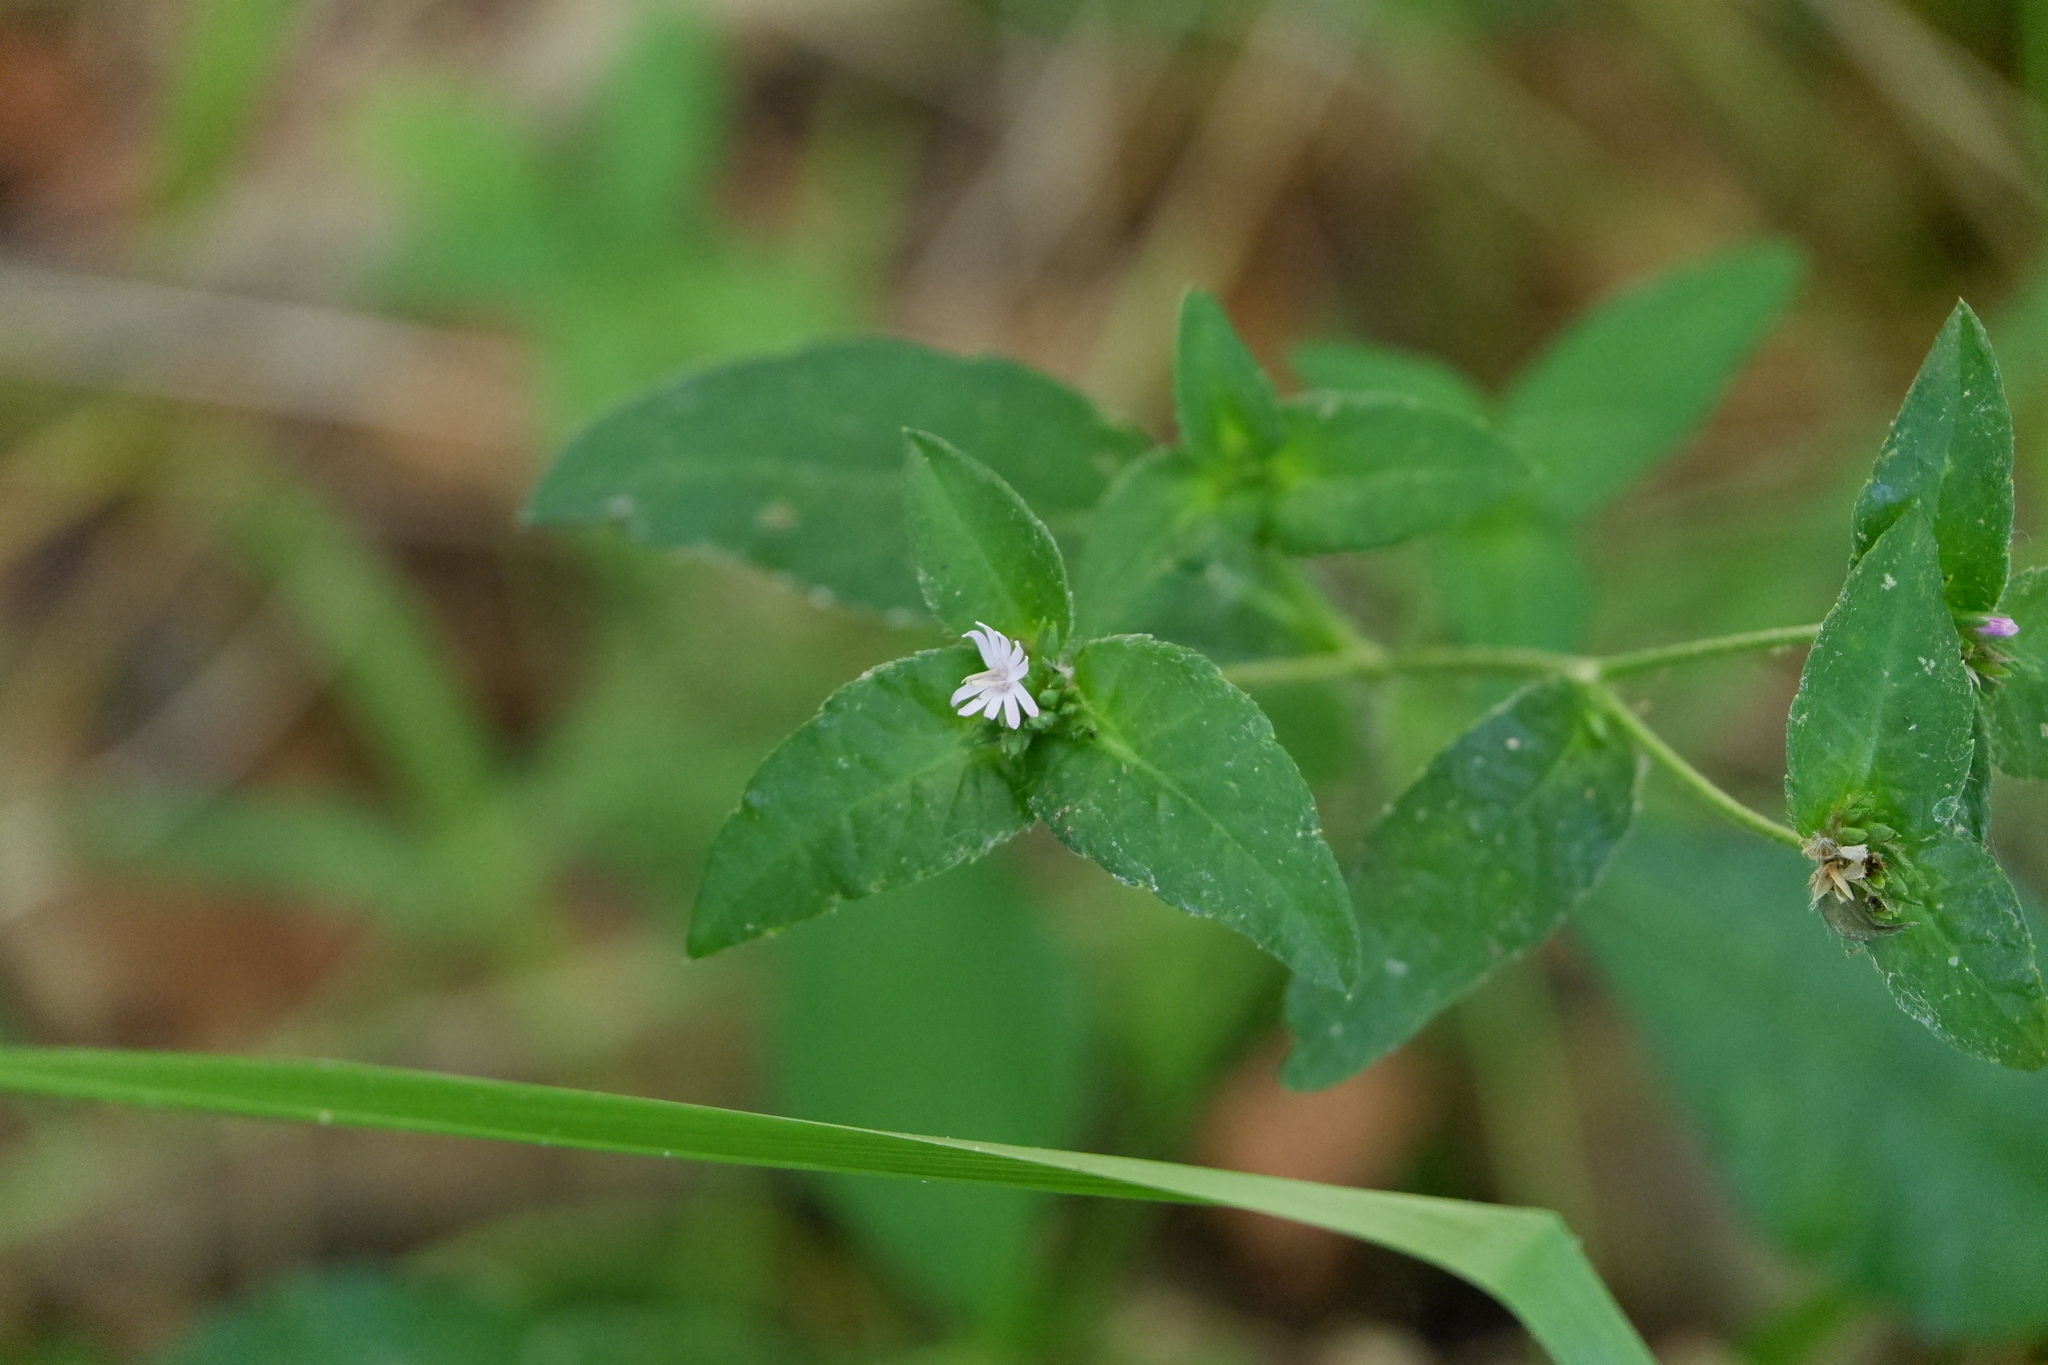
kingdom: Plantae
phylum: Tracheophyta
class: Magnoliopsida
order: Asterales
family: Asteraceae
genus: Elephantopus
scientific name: Elephantopus carolinianus
